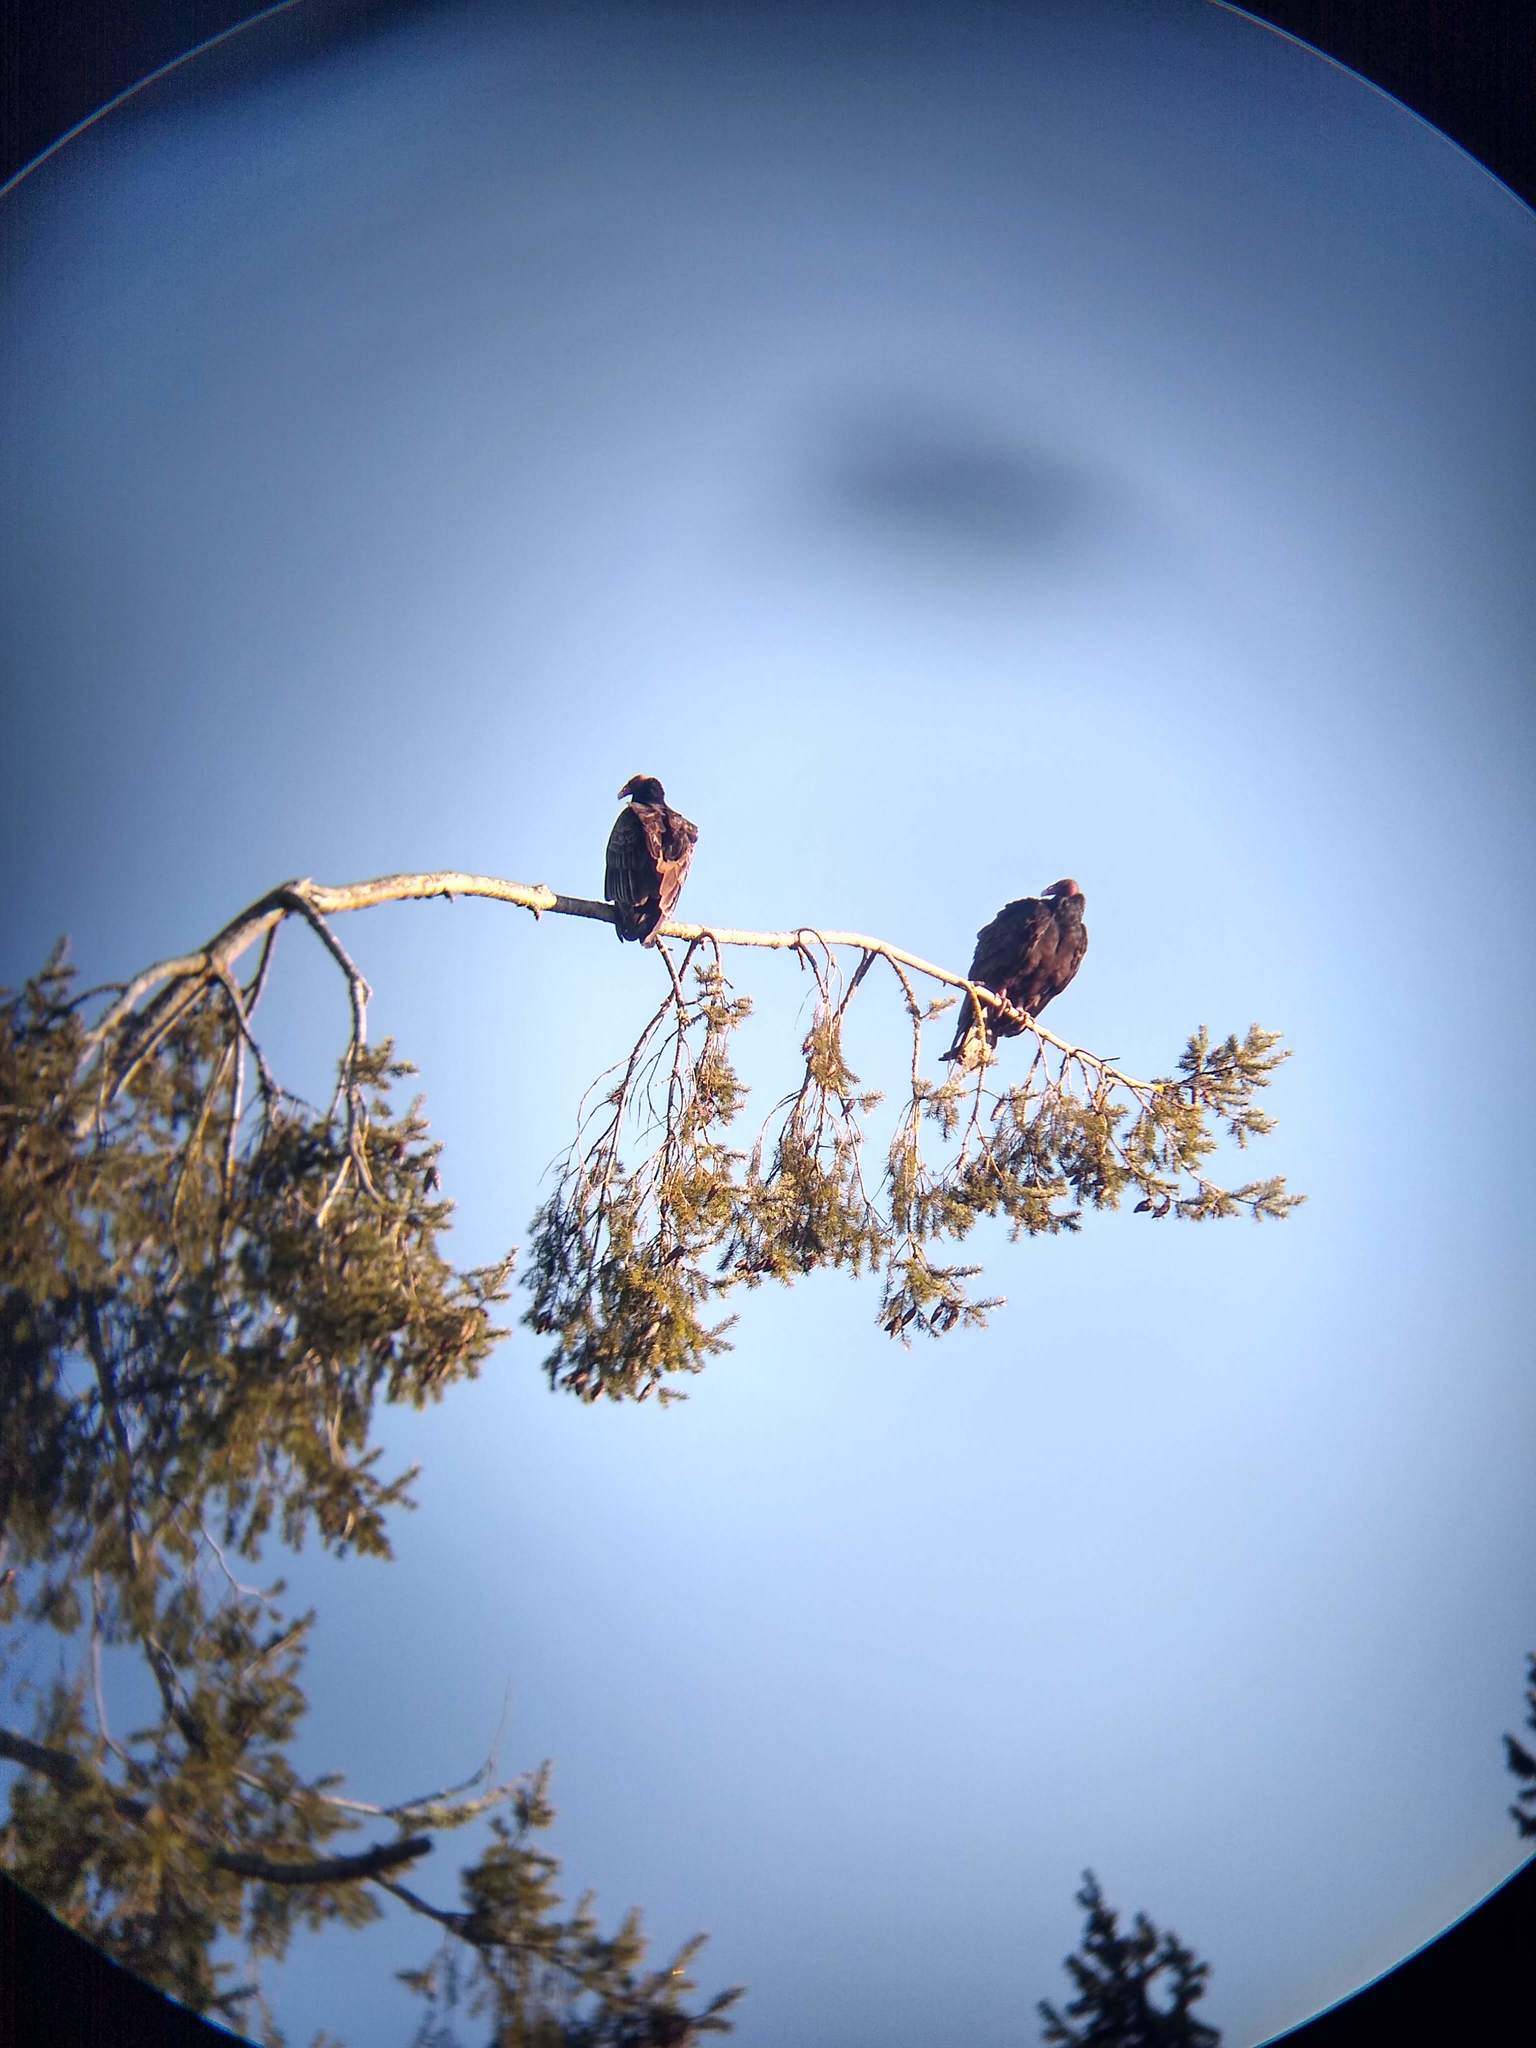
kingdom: Animalia
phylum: Chordata
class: Aves
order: Accipitriformes
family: Cathartidae
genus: Cathartes
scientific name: Cathartes aura
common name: Turkey vulture
